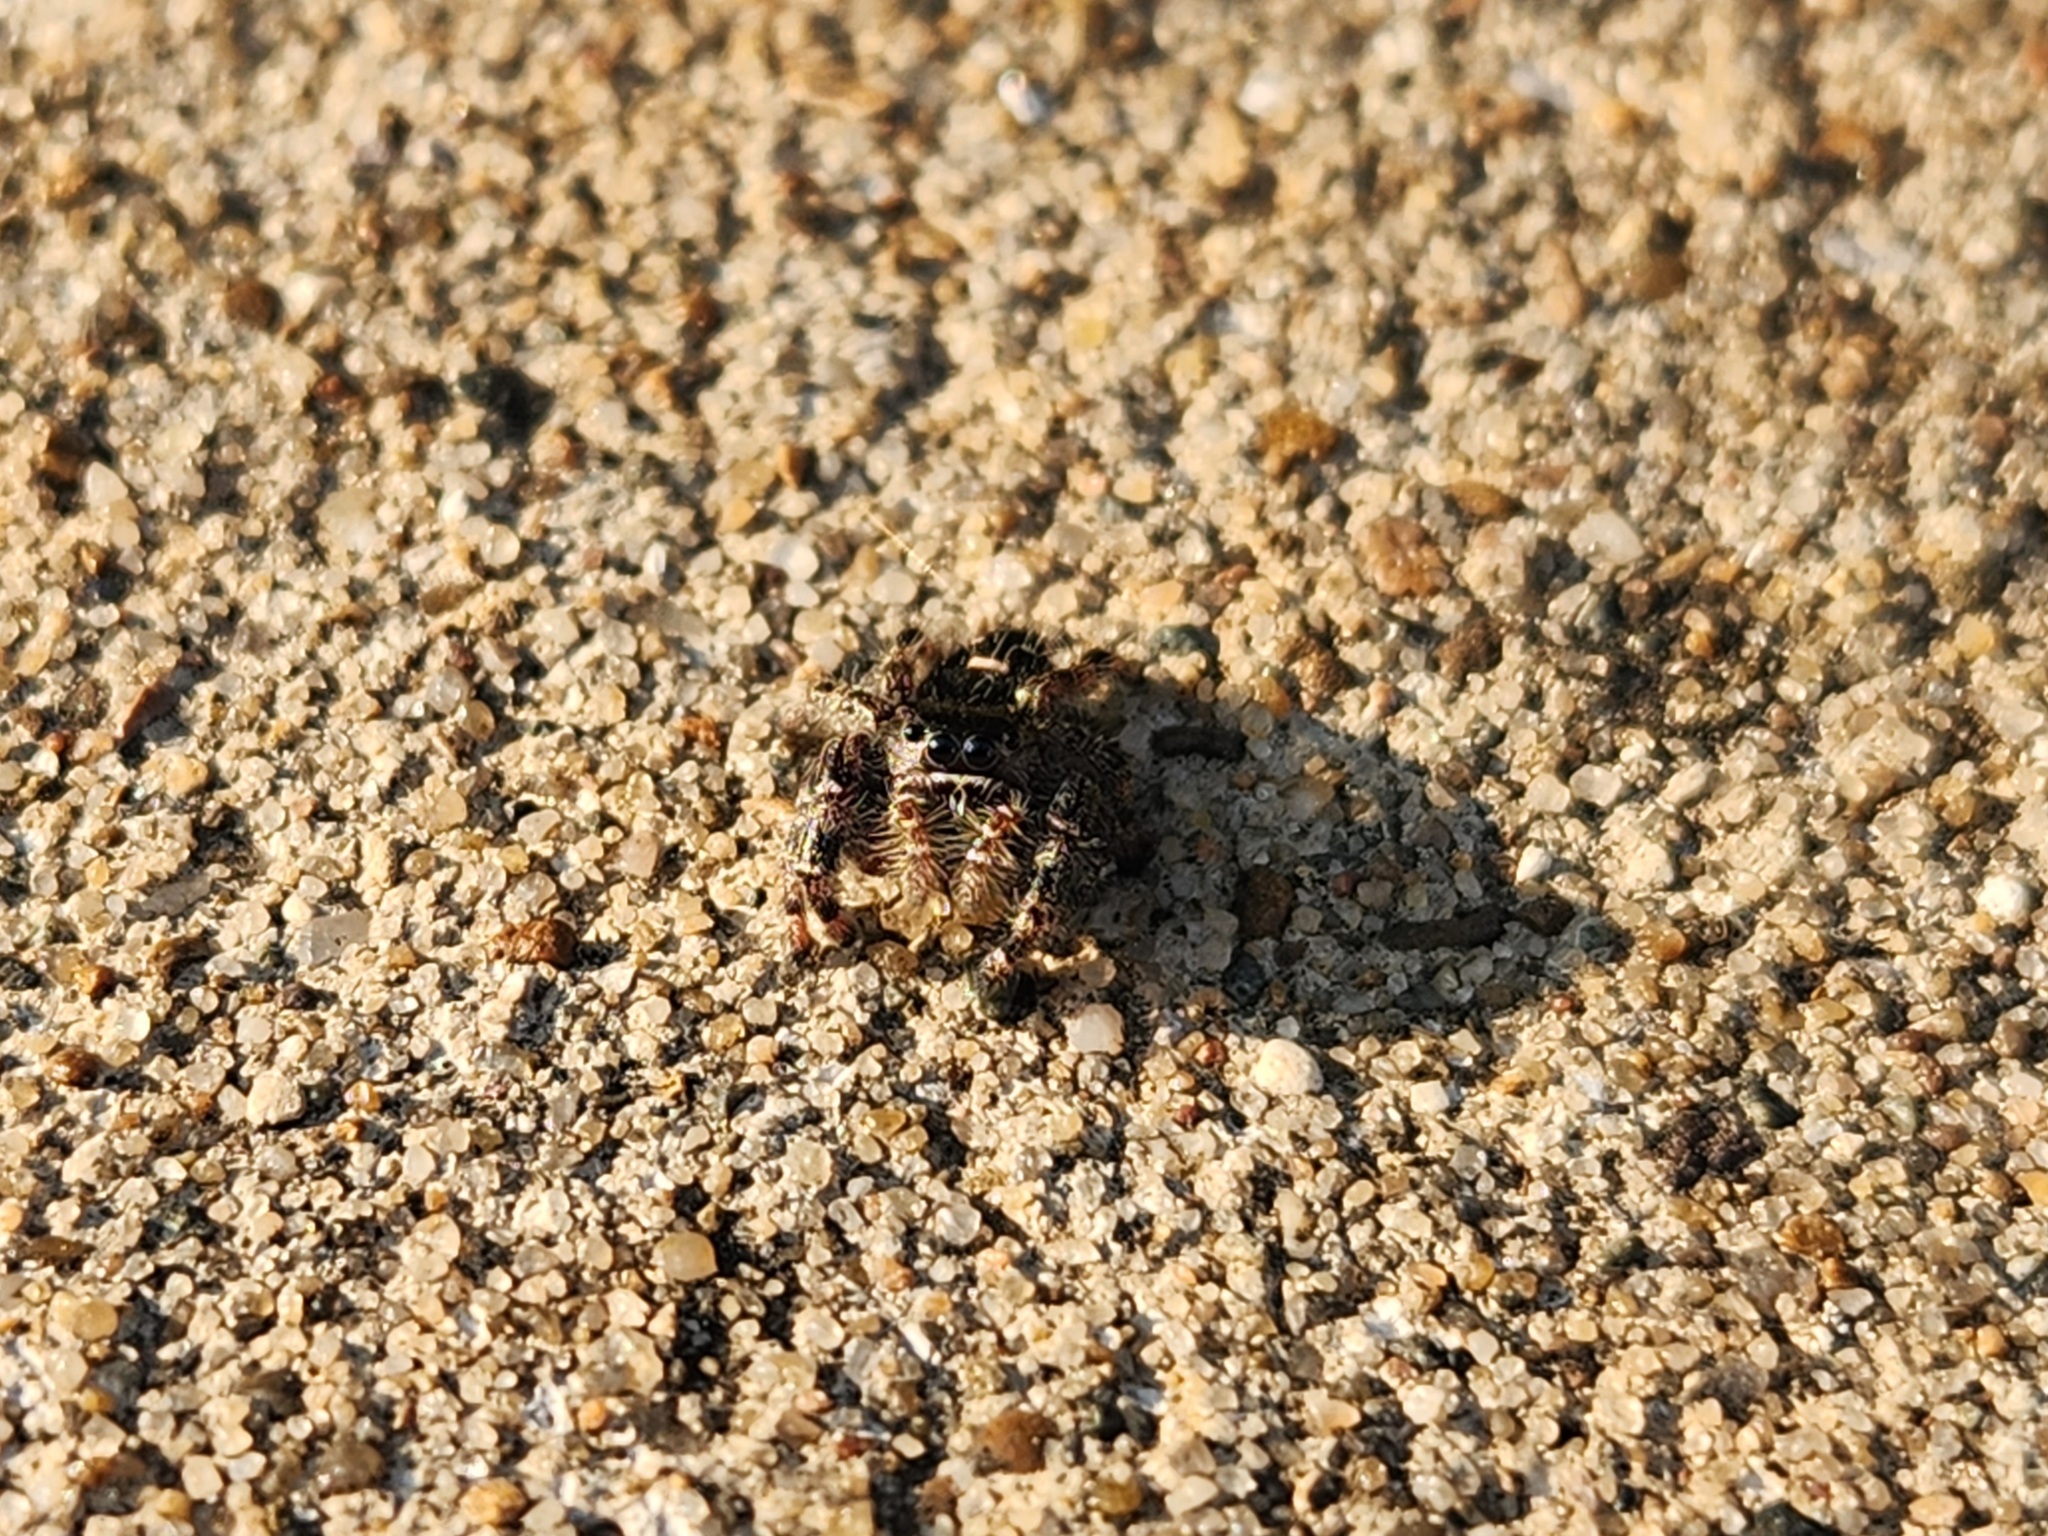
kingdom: Animalia
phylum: Arthropoda
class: Arachnida
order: Araneae
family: Salticidae
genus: Phidippus
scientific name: Phidippus audax
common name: Bold jumper
